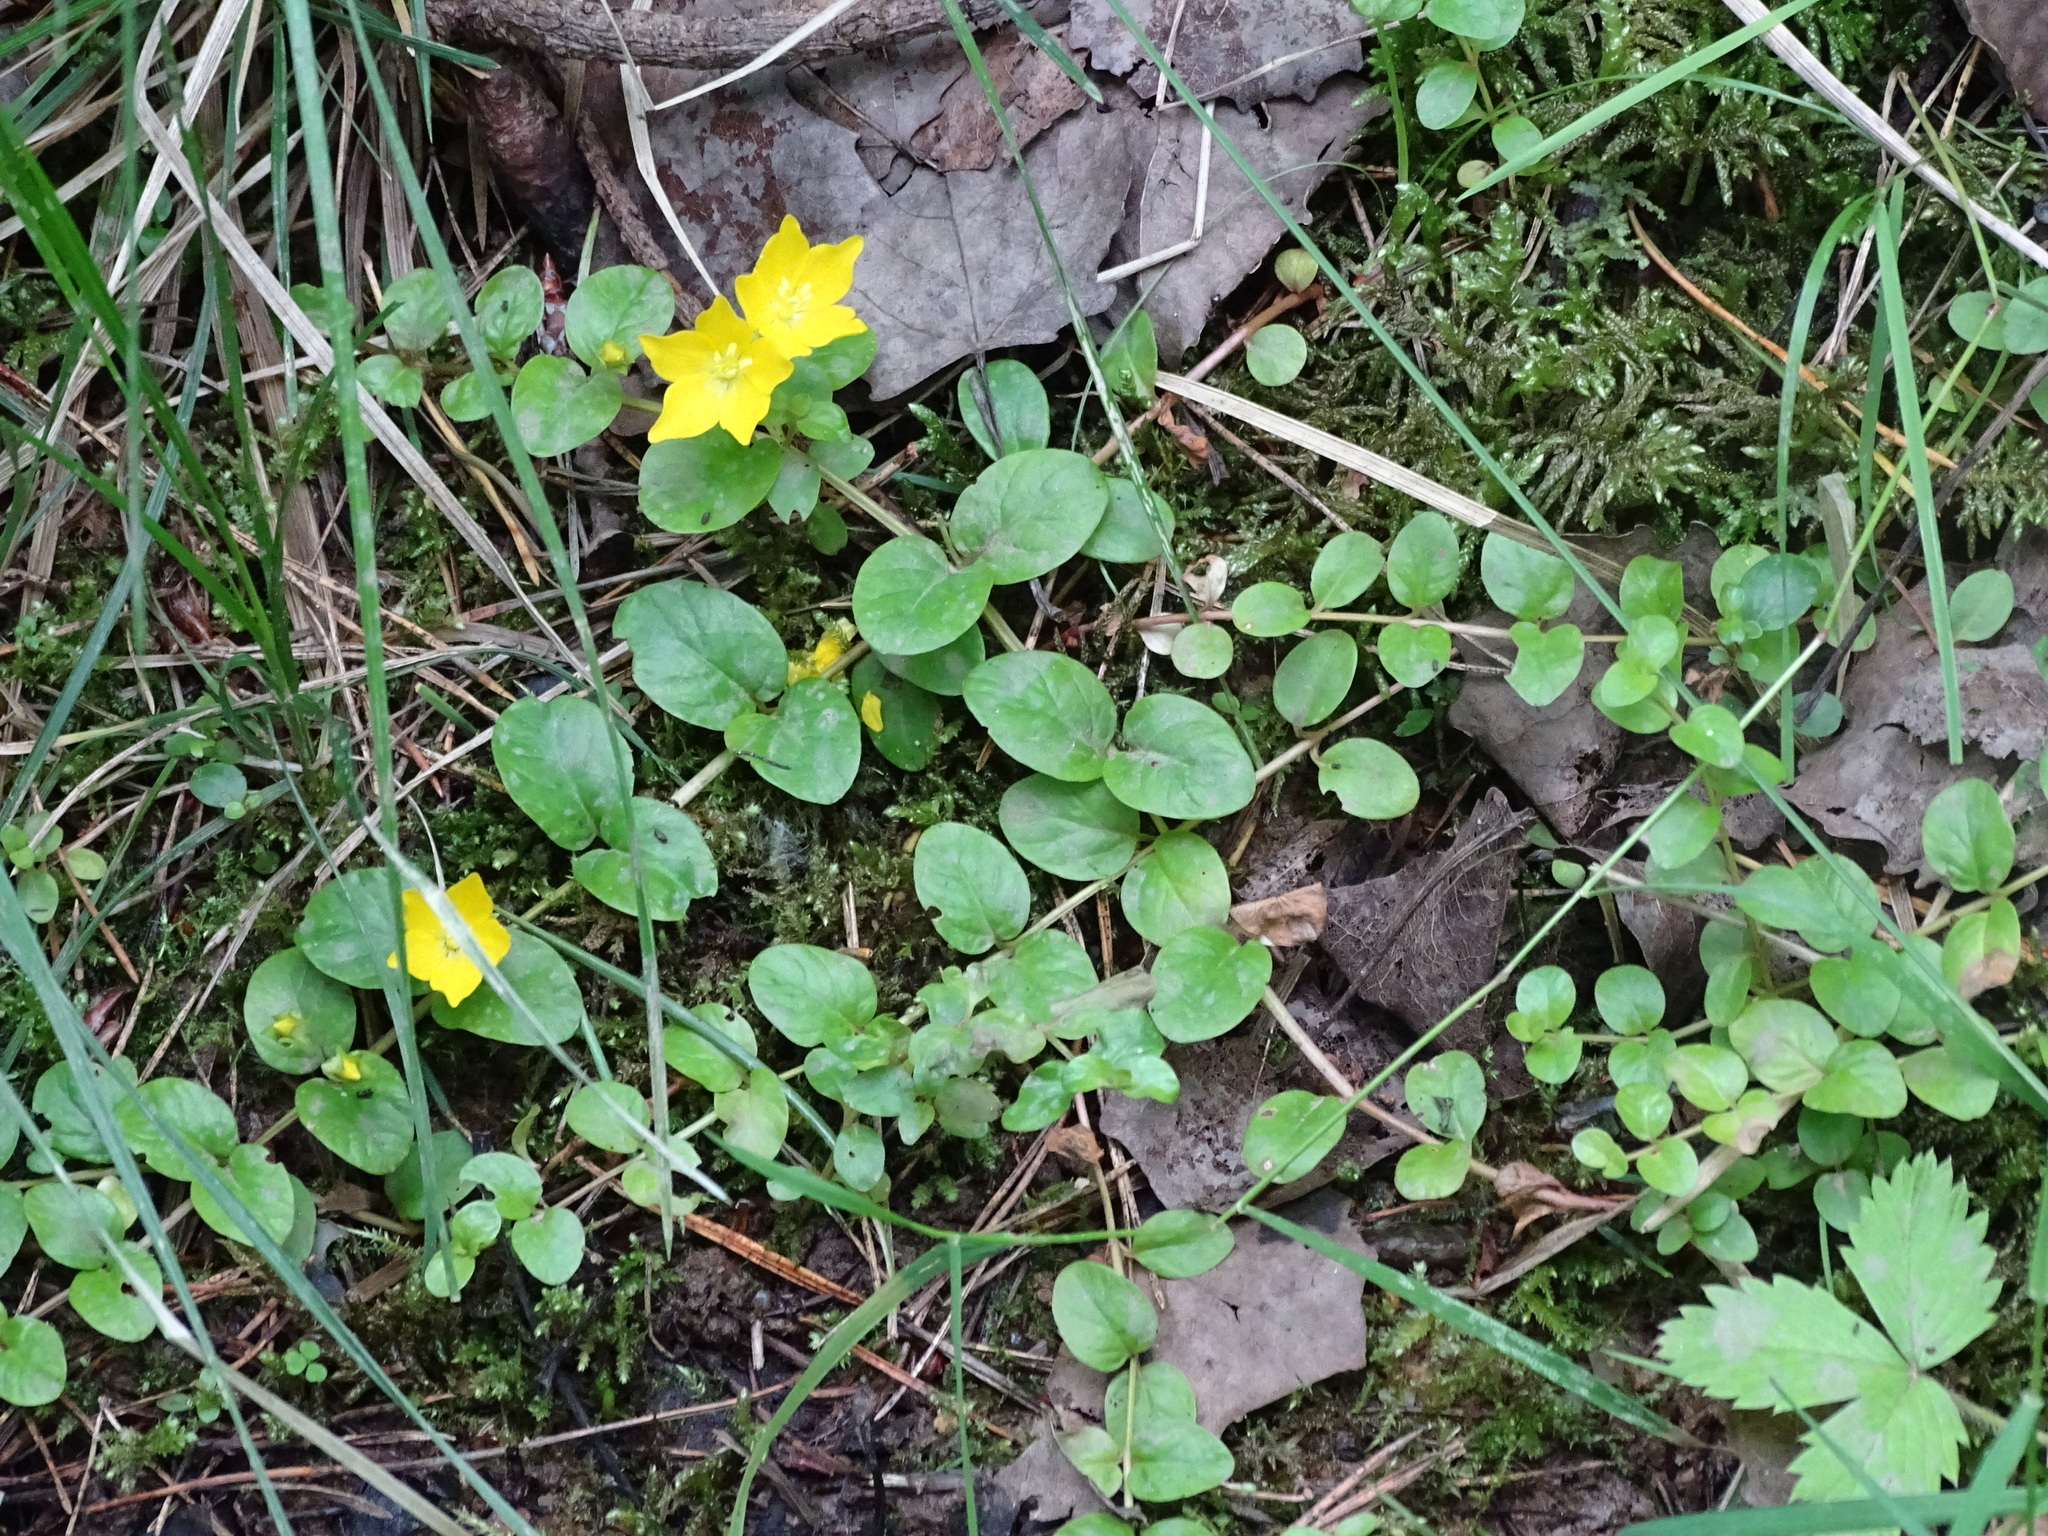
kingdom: Plantae
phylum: Tracheophyta
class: Magnoliopsida
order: Ericales
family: Primulaceae
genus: Lysimachia
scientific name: Lysimachia nummularia
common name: Moneywort
